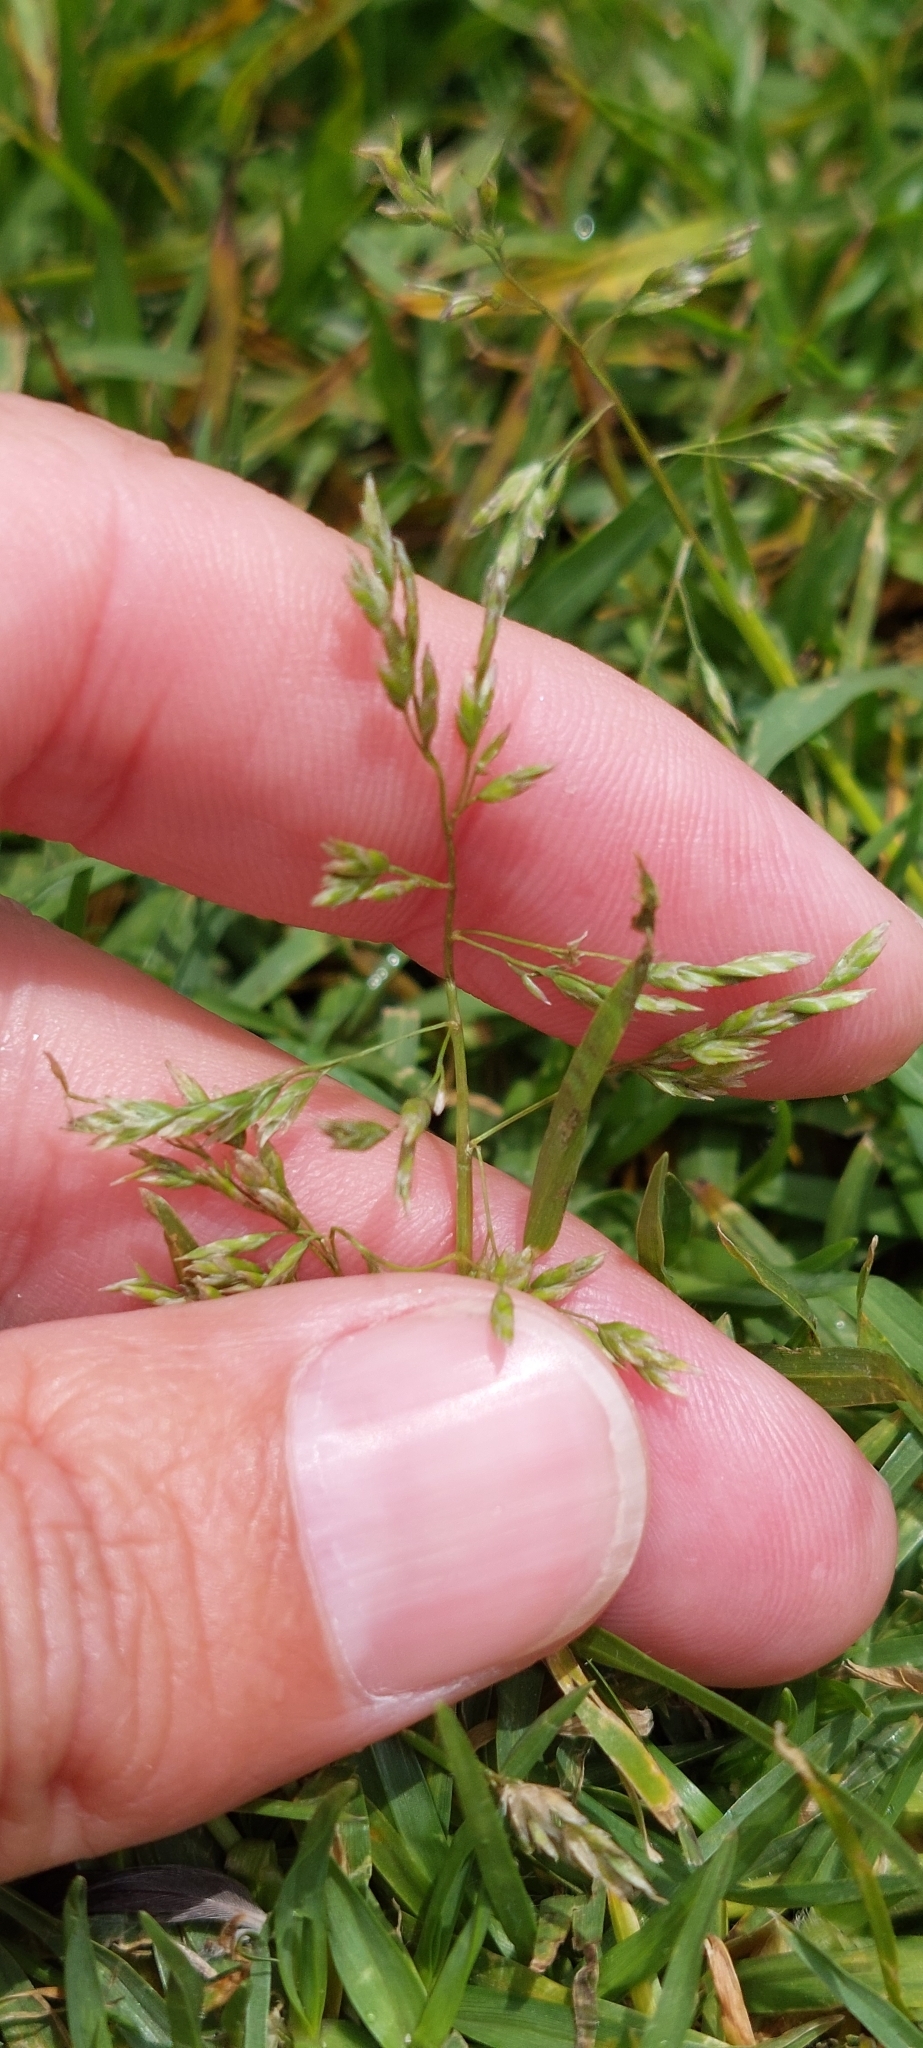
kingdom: Plantae
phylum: Tracheophyta
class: Liliopsida
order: Poales
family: Poaceae
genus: Poa
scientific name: Poa annua
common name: Annual bluegrass
